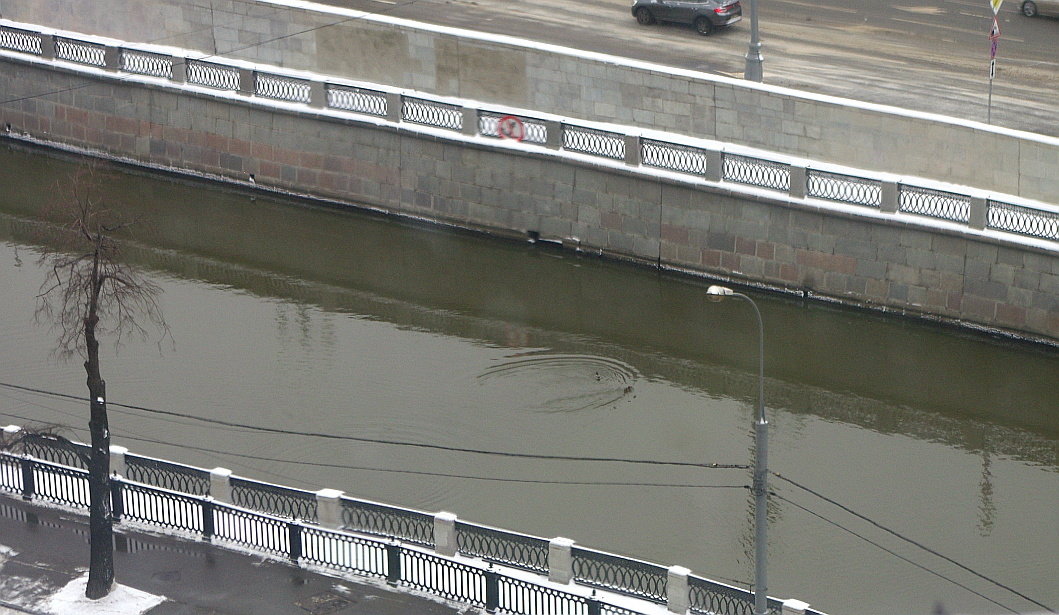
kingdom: Animalia
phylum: Chordata
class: Aves
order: Anseriformes
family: Anatidae
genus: Anas
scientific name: Anas platyrhynchos
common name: Mallard
